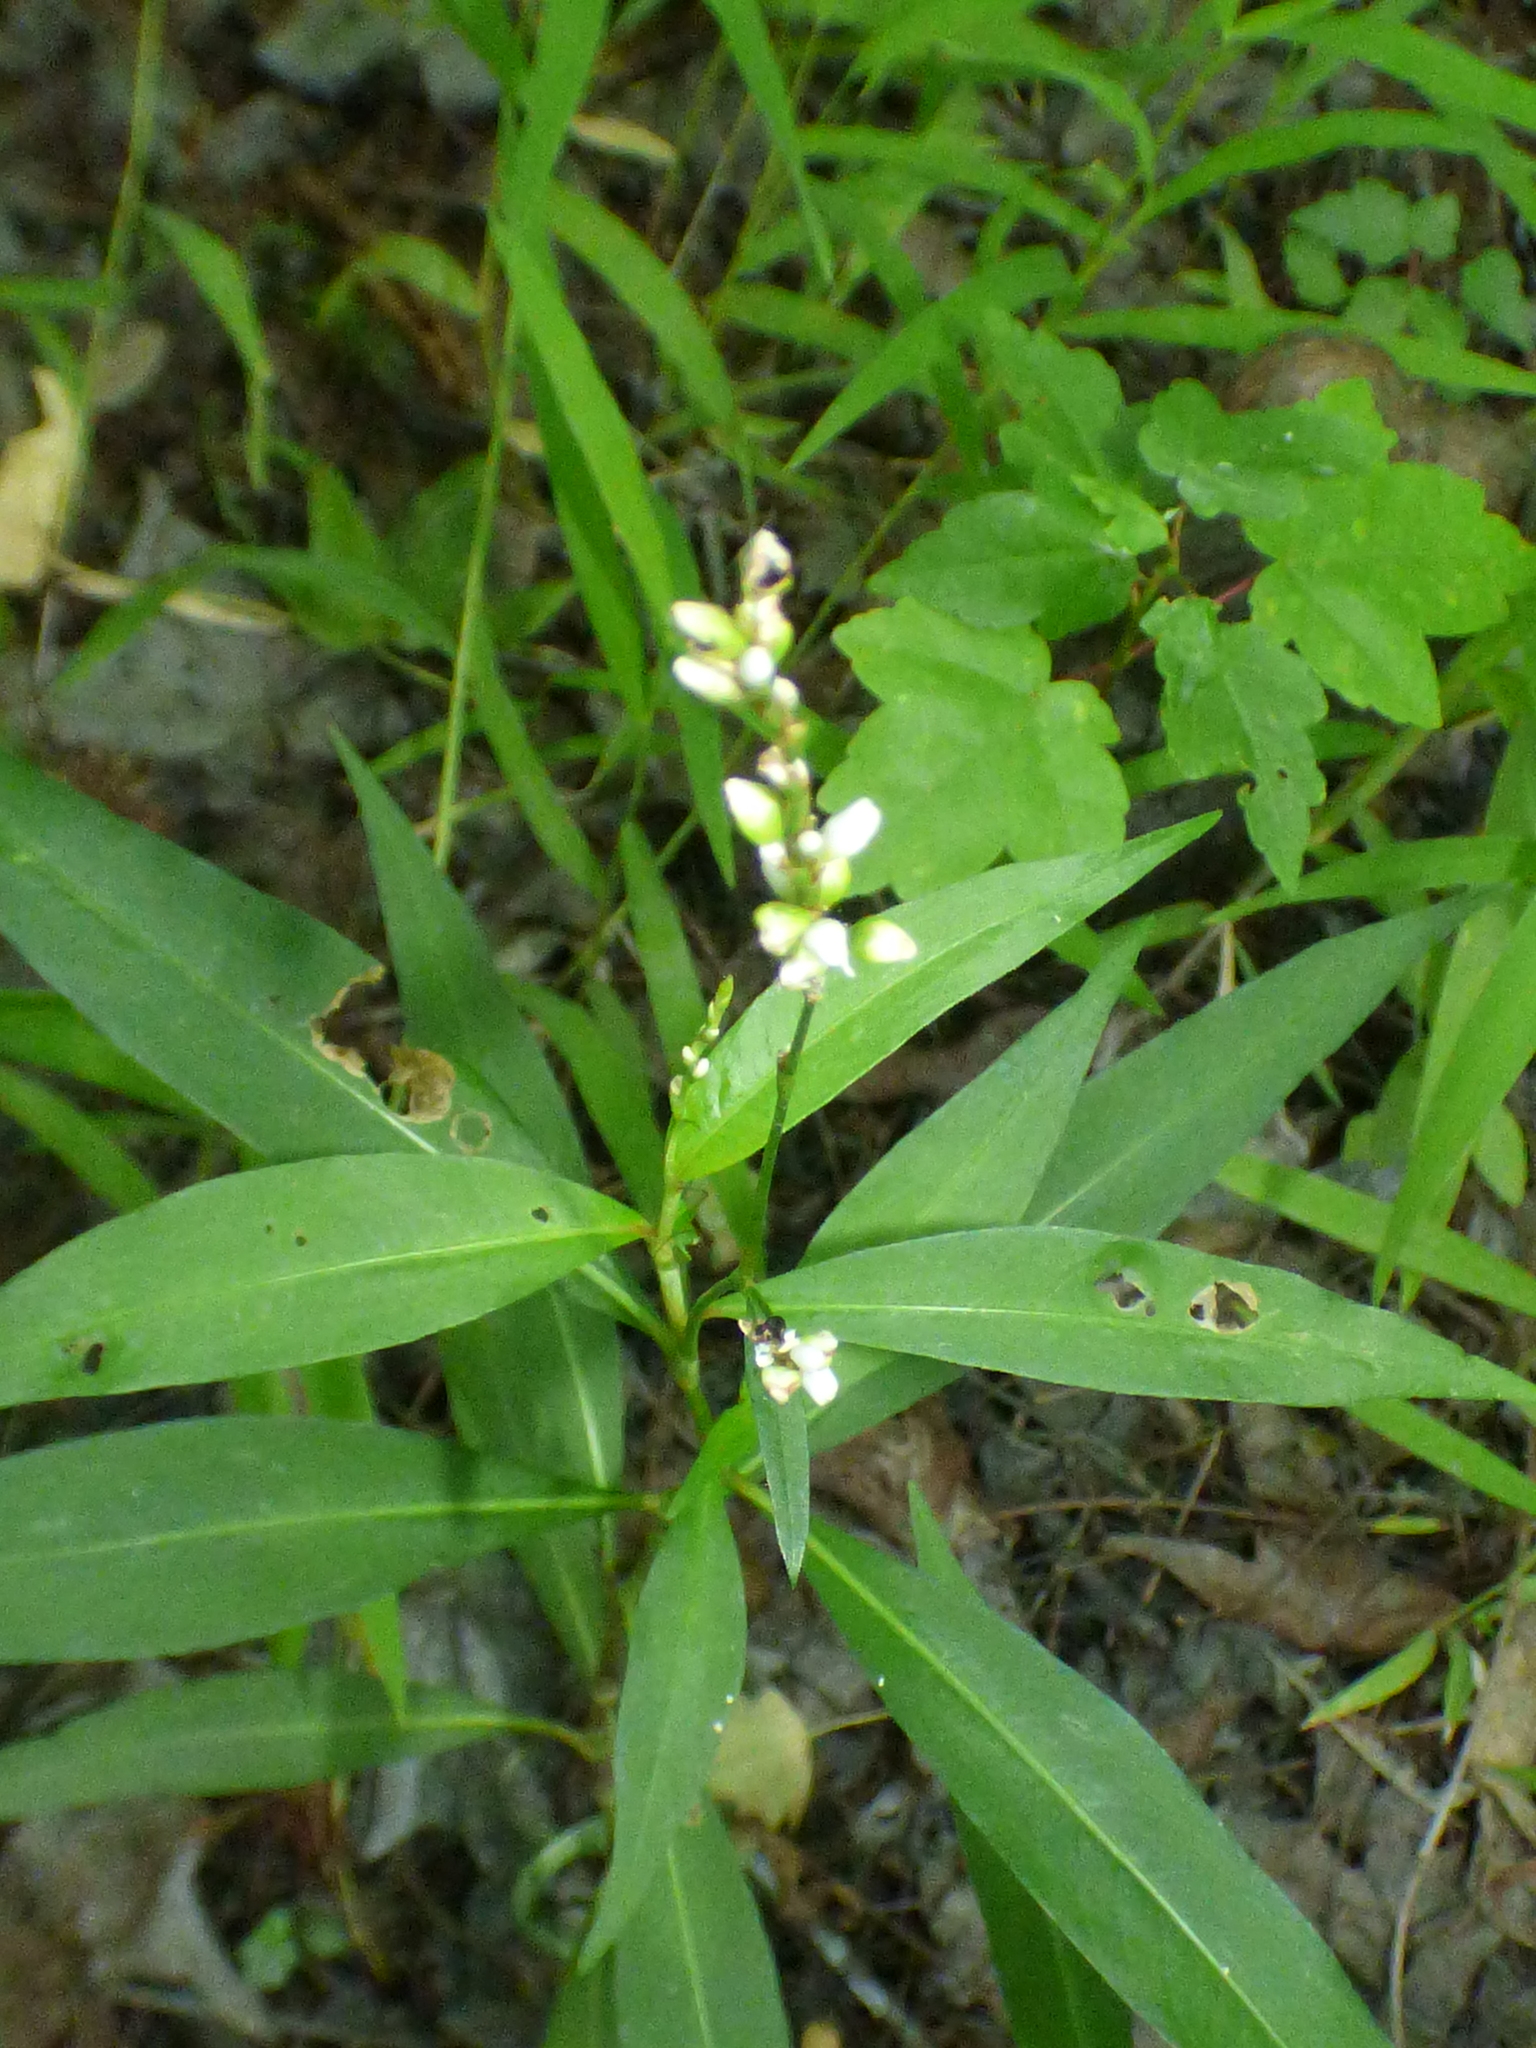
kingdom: Plantae
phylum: Tracheophyta
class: Magnoliopsida
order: Caryophyllales
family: Polygonaceae
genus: Persicaria
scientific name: Persicaria punctata
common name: Dotted smartweed
